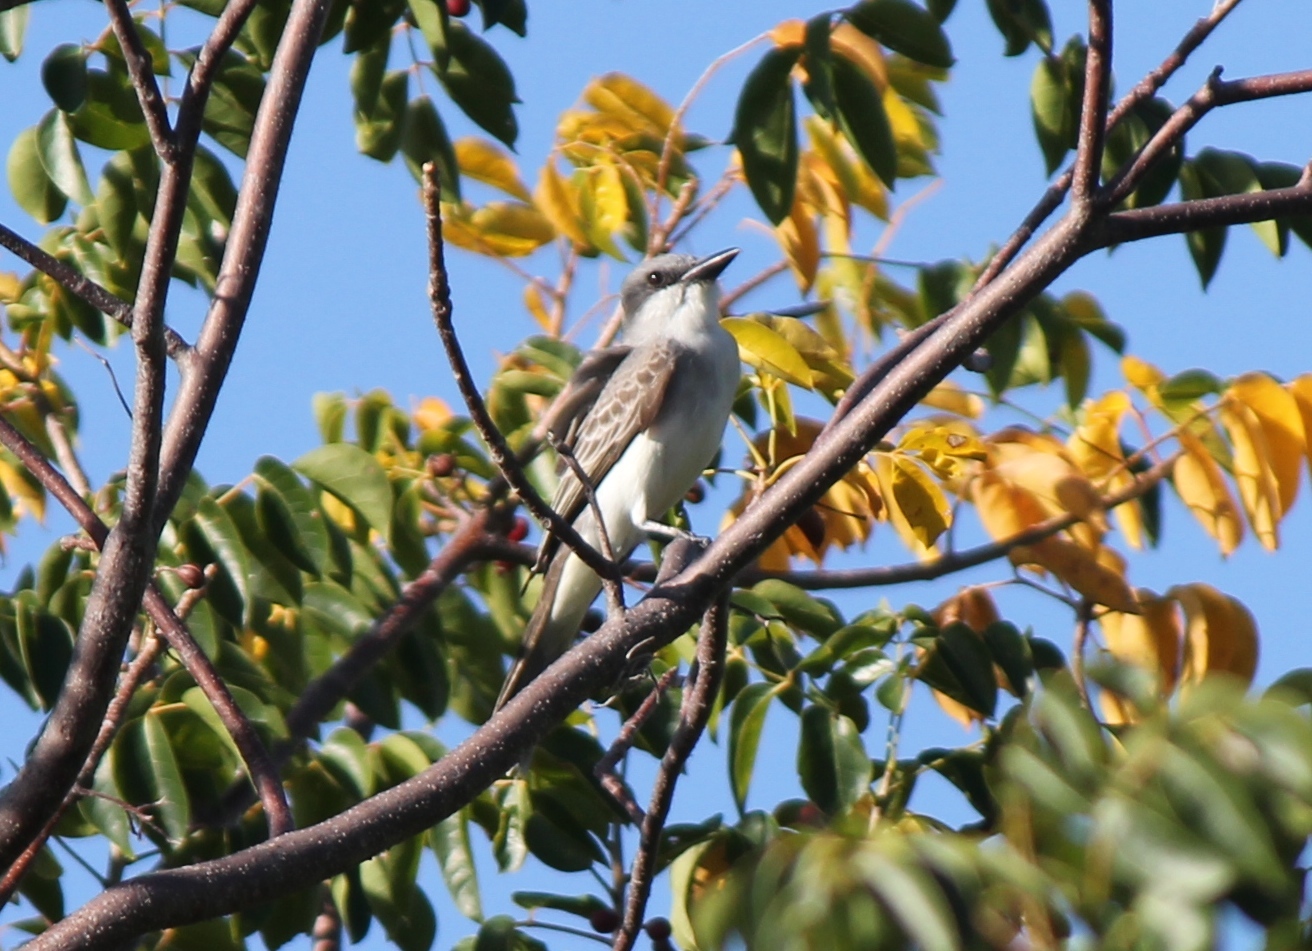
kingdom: Animalia
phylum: Chordata
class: Aves
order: Passeriformes
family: Tyrannidae
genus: Tyrannus
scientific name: Tyrannus dominicensis
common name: Gray kingbird
